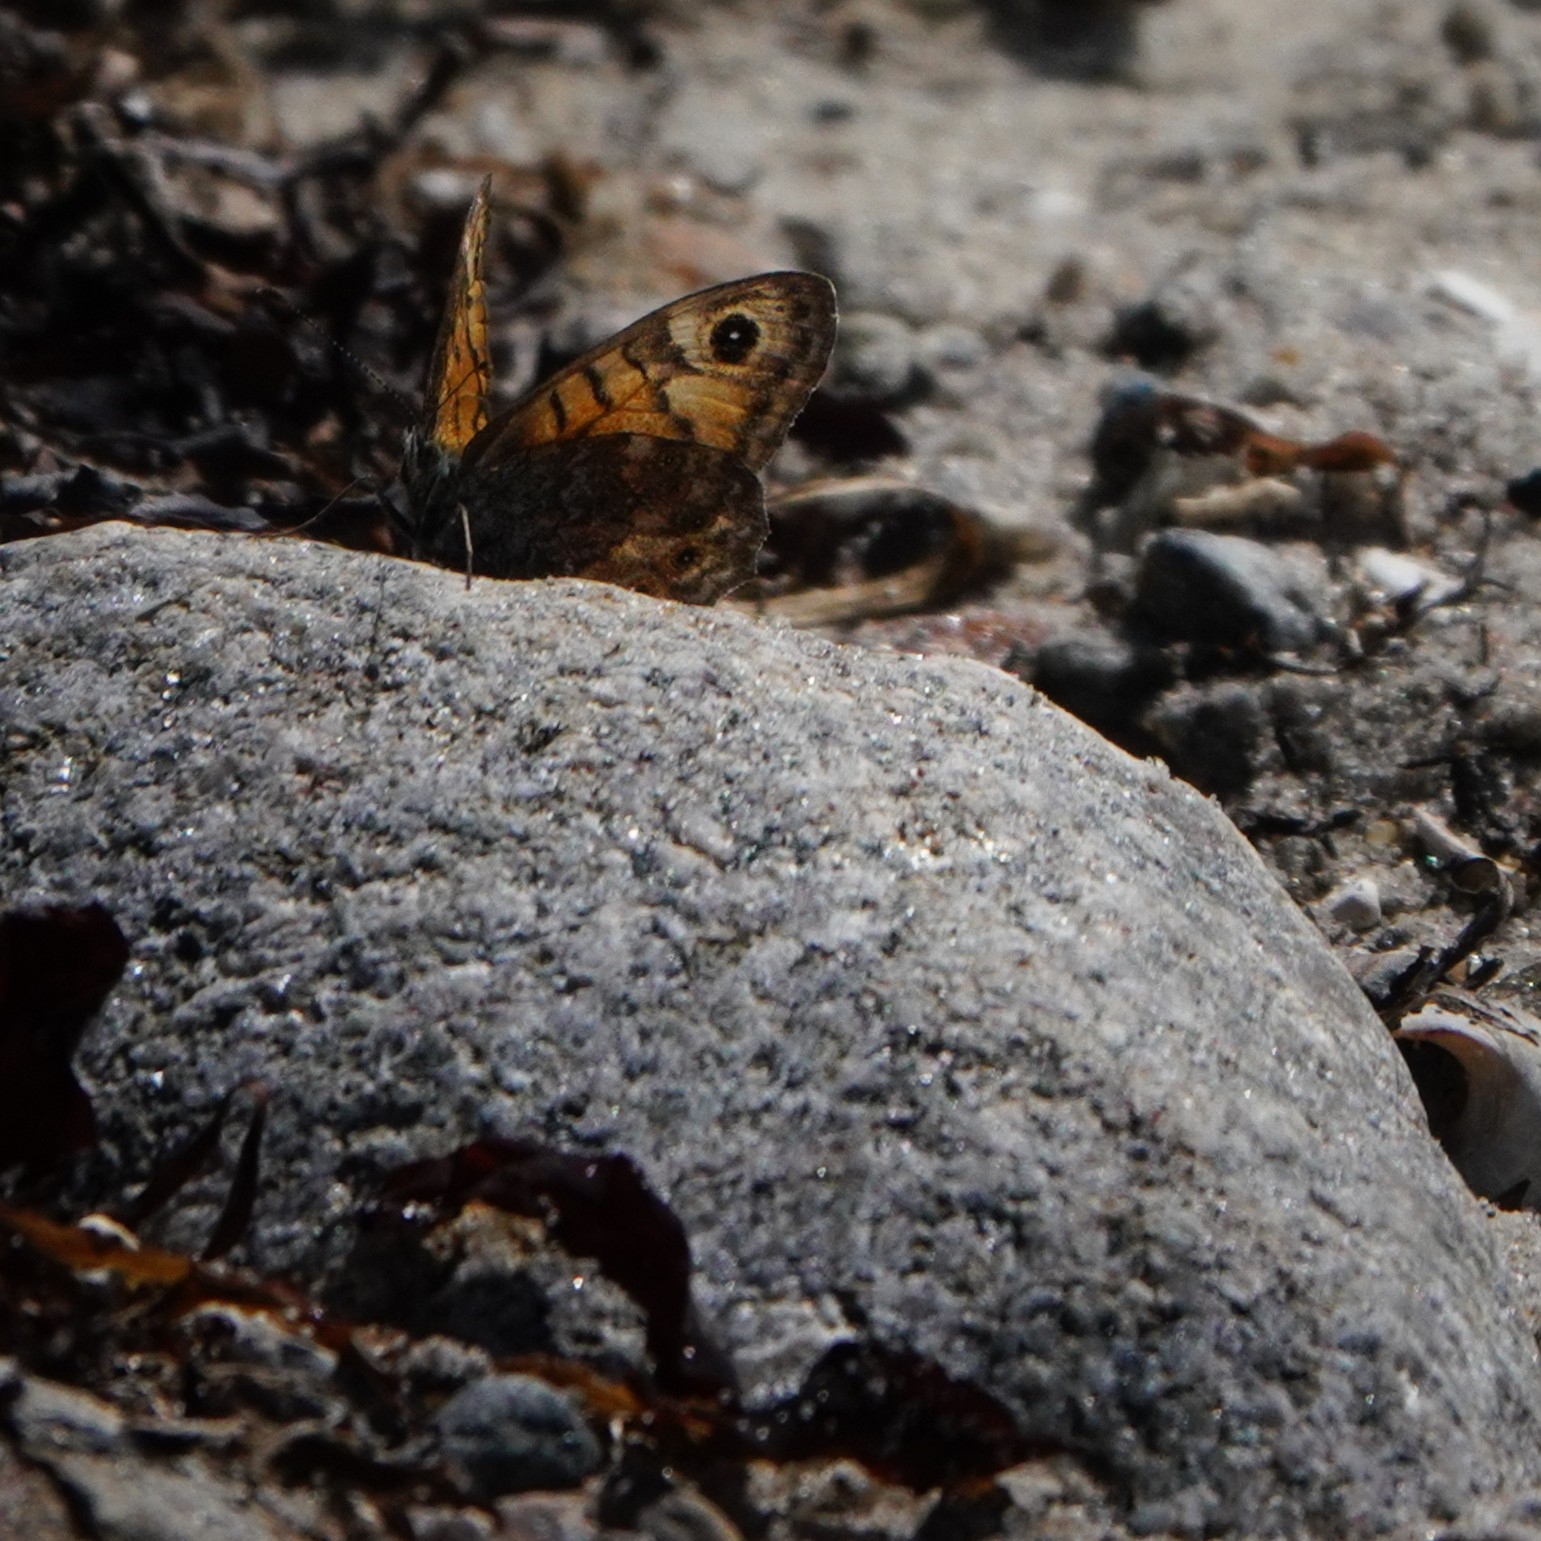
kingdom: Animalia
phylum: Arthropoda
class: Insecta
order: Lepidoptera
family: Nymphalidae
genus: Pararge
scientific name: Pararge Lasiommata megera
